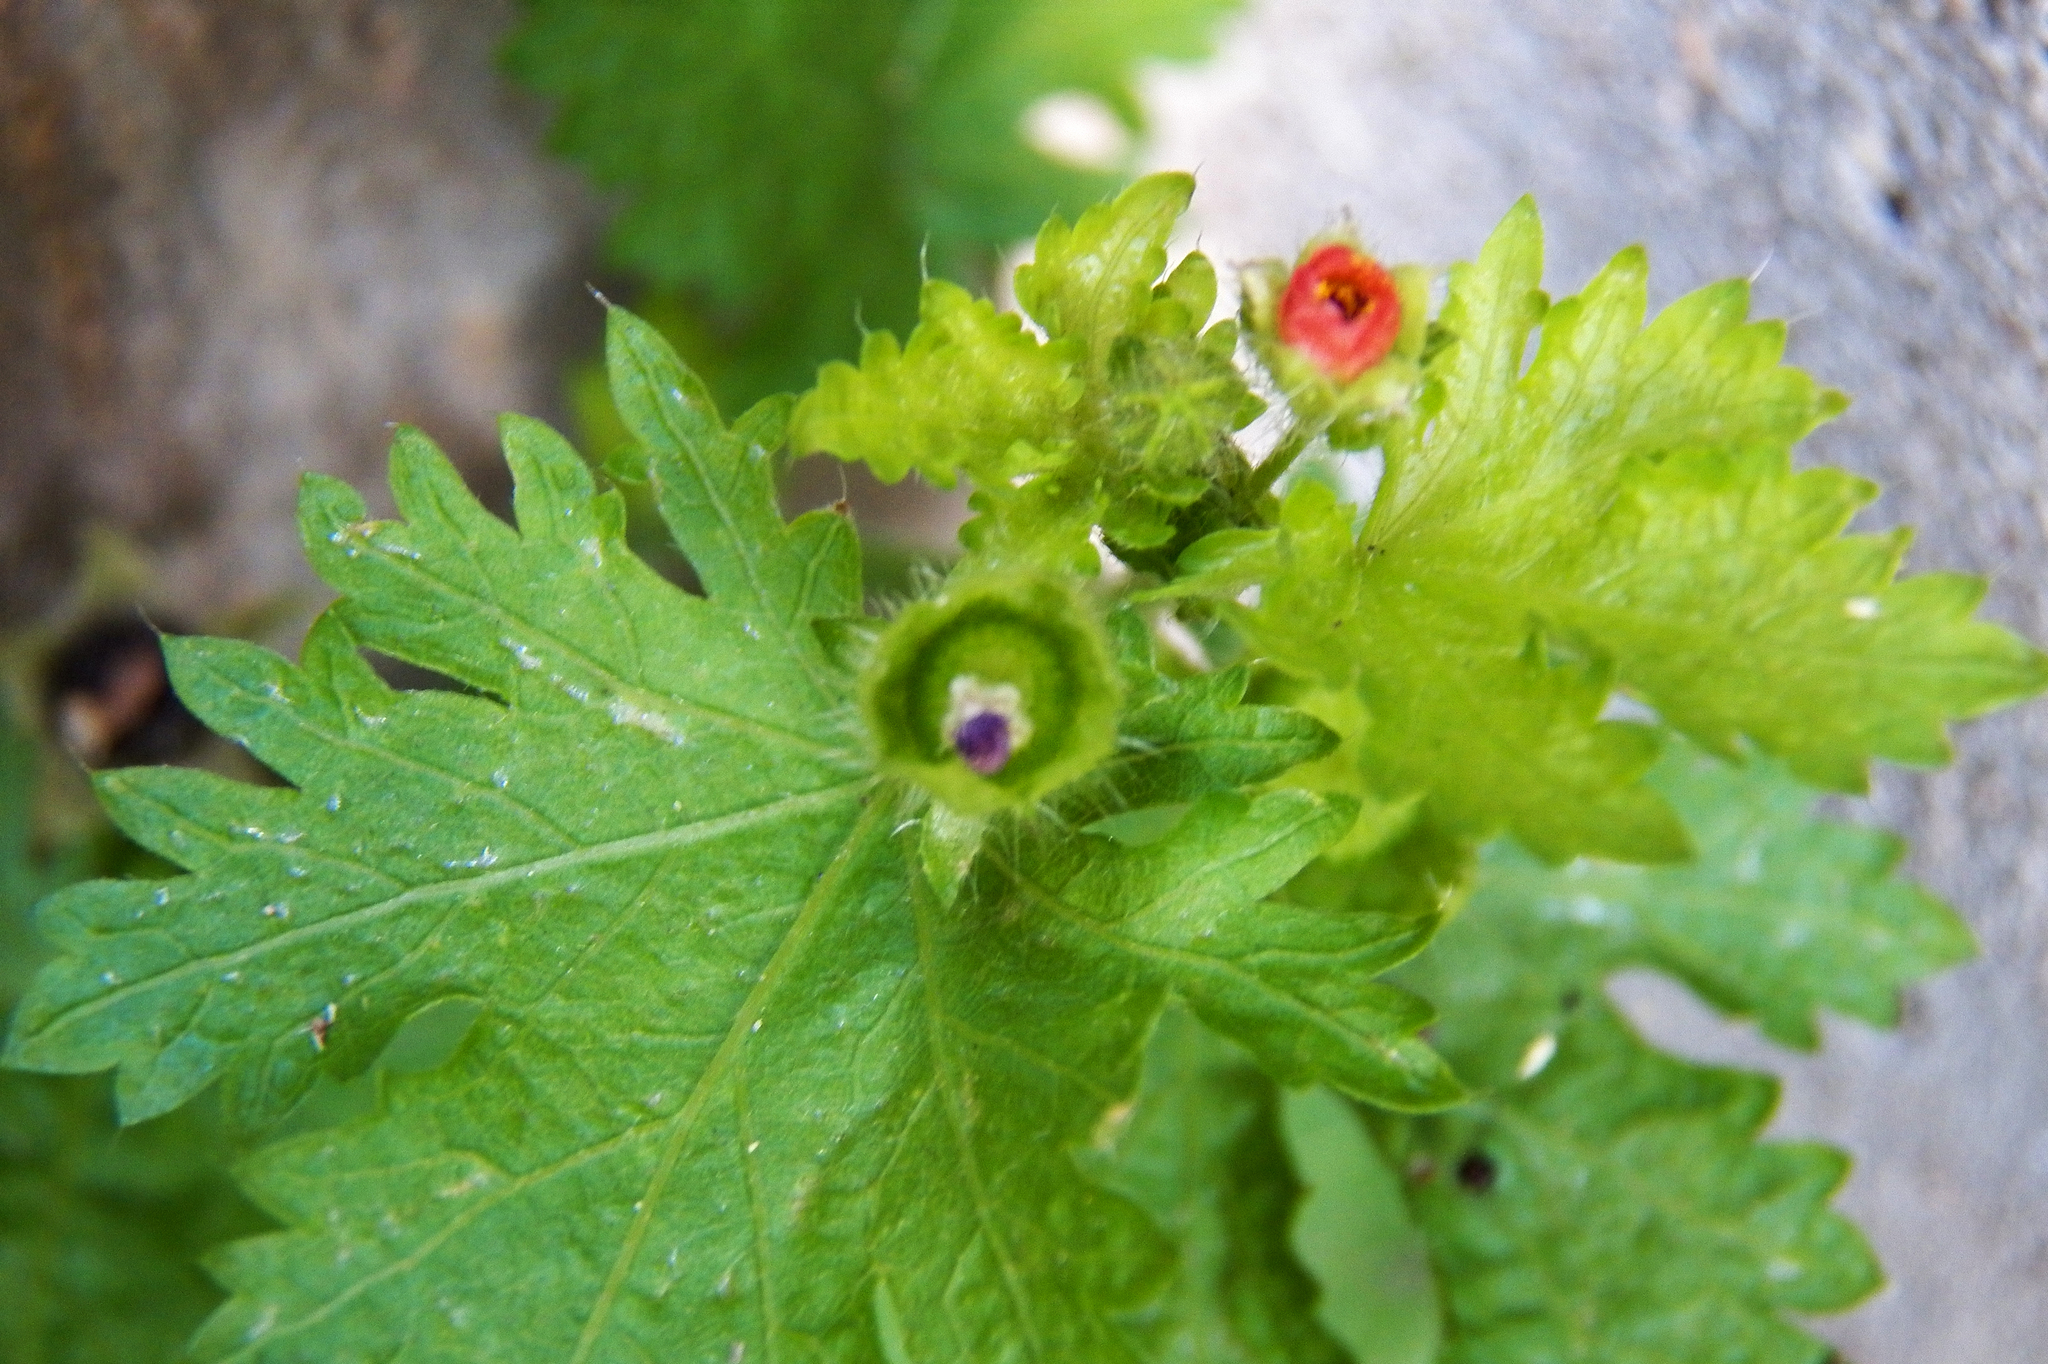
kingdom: Plantae
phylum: Tracheophyta
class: Magnoliopsida
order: Malvales
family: Malvaceae
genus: Modiola
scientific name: Modiola caroliniana
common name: Carolina bristlemallow
